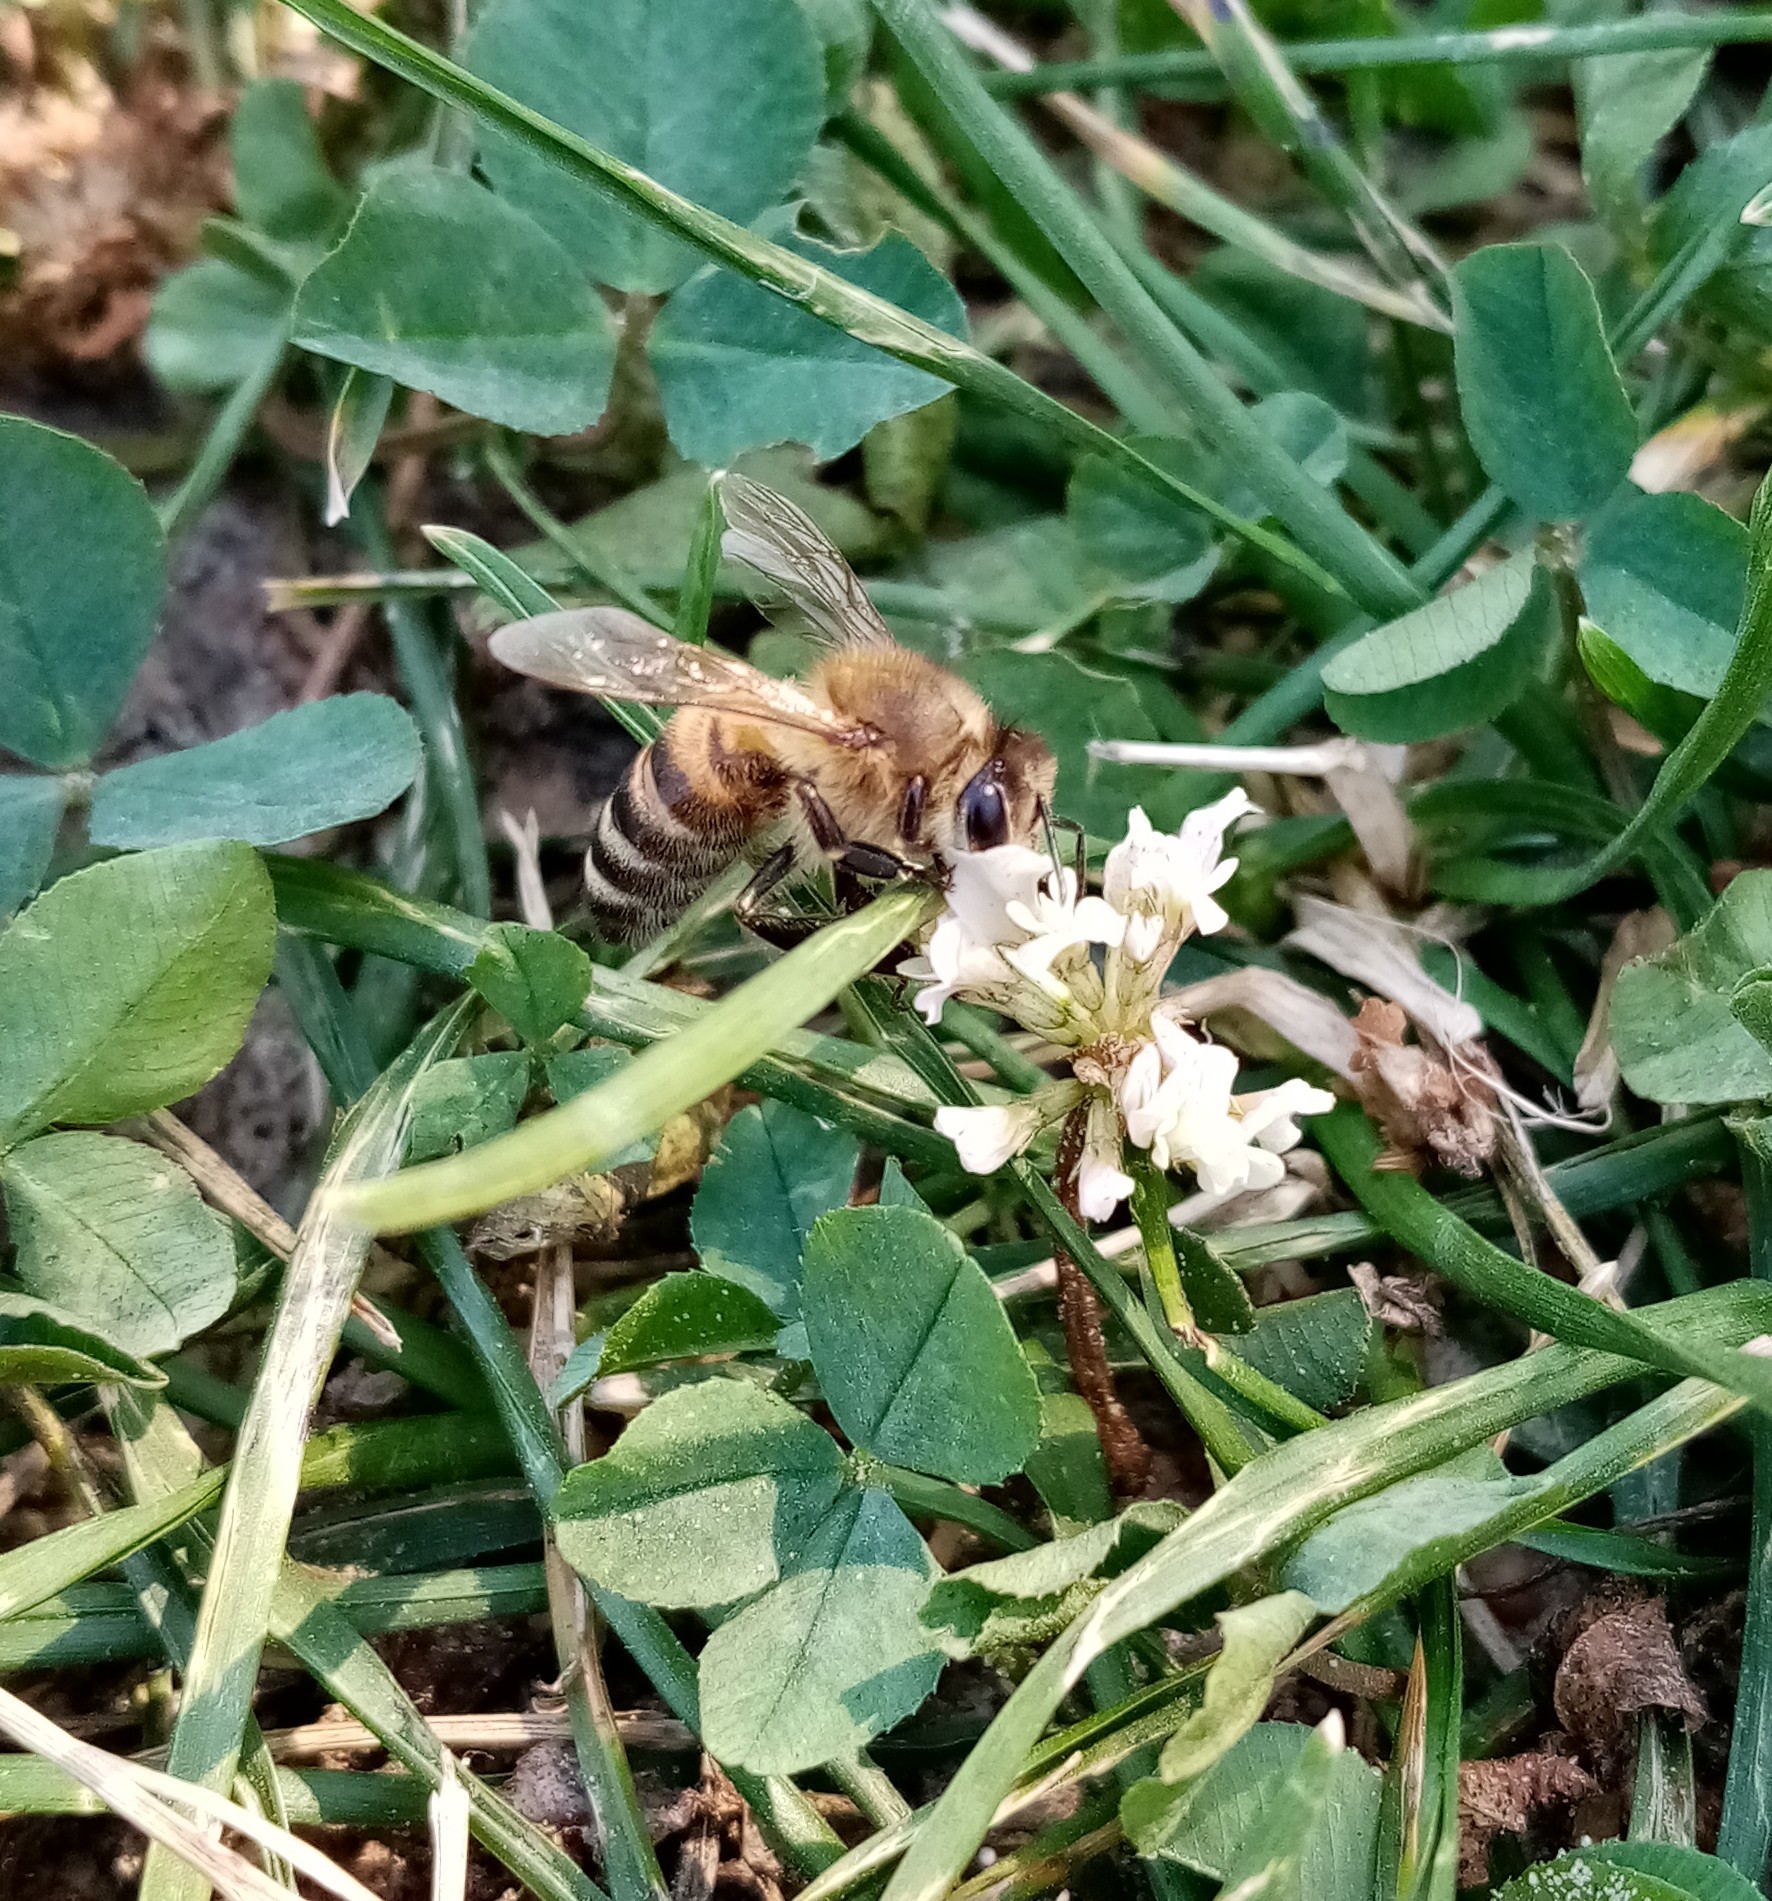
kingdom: Animalia
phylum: Arthropoda
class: Insecta
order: Hymenoptera
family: Apidae
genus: Apis
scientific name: Apis mellifera
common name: Honey bee
